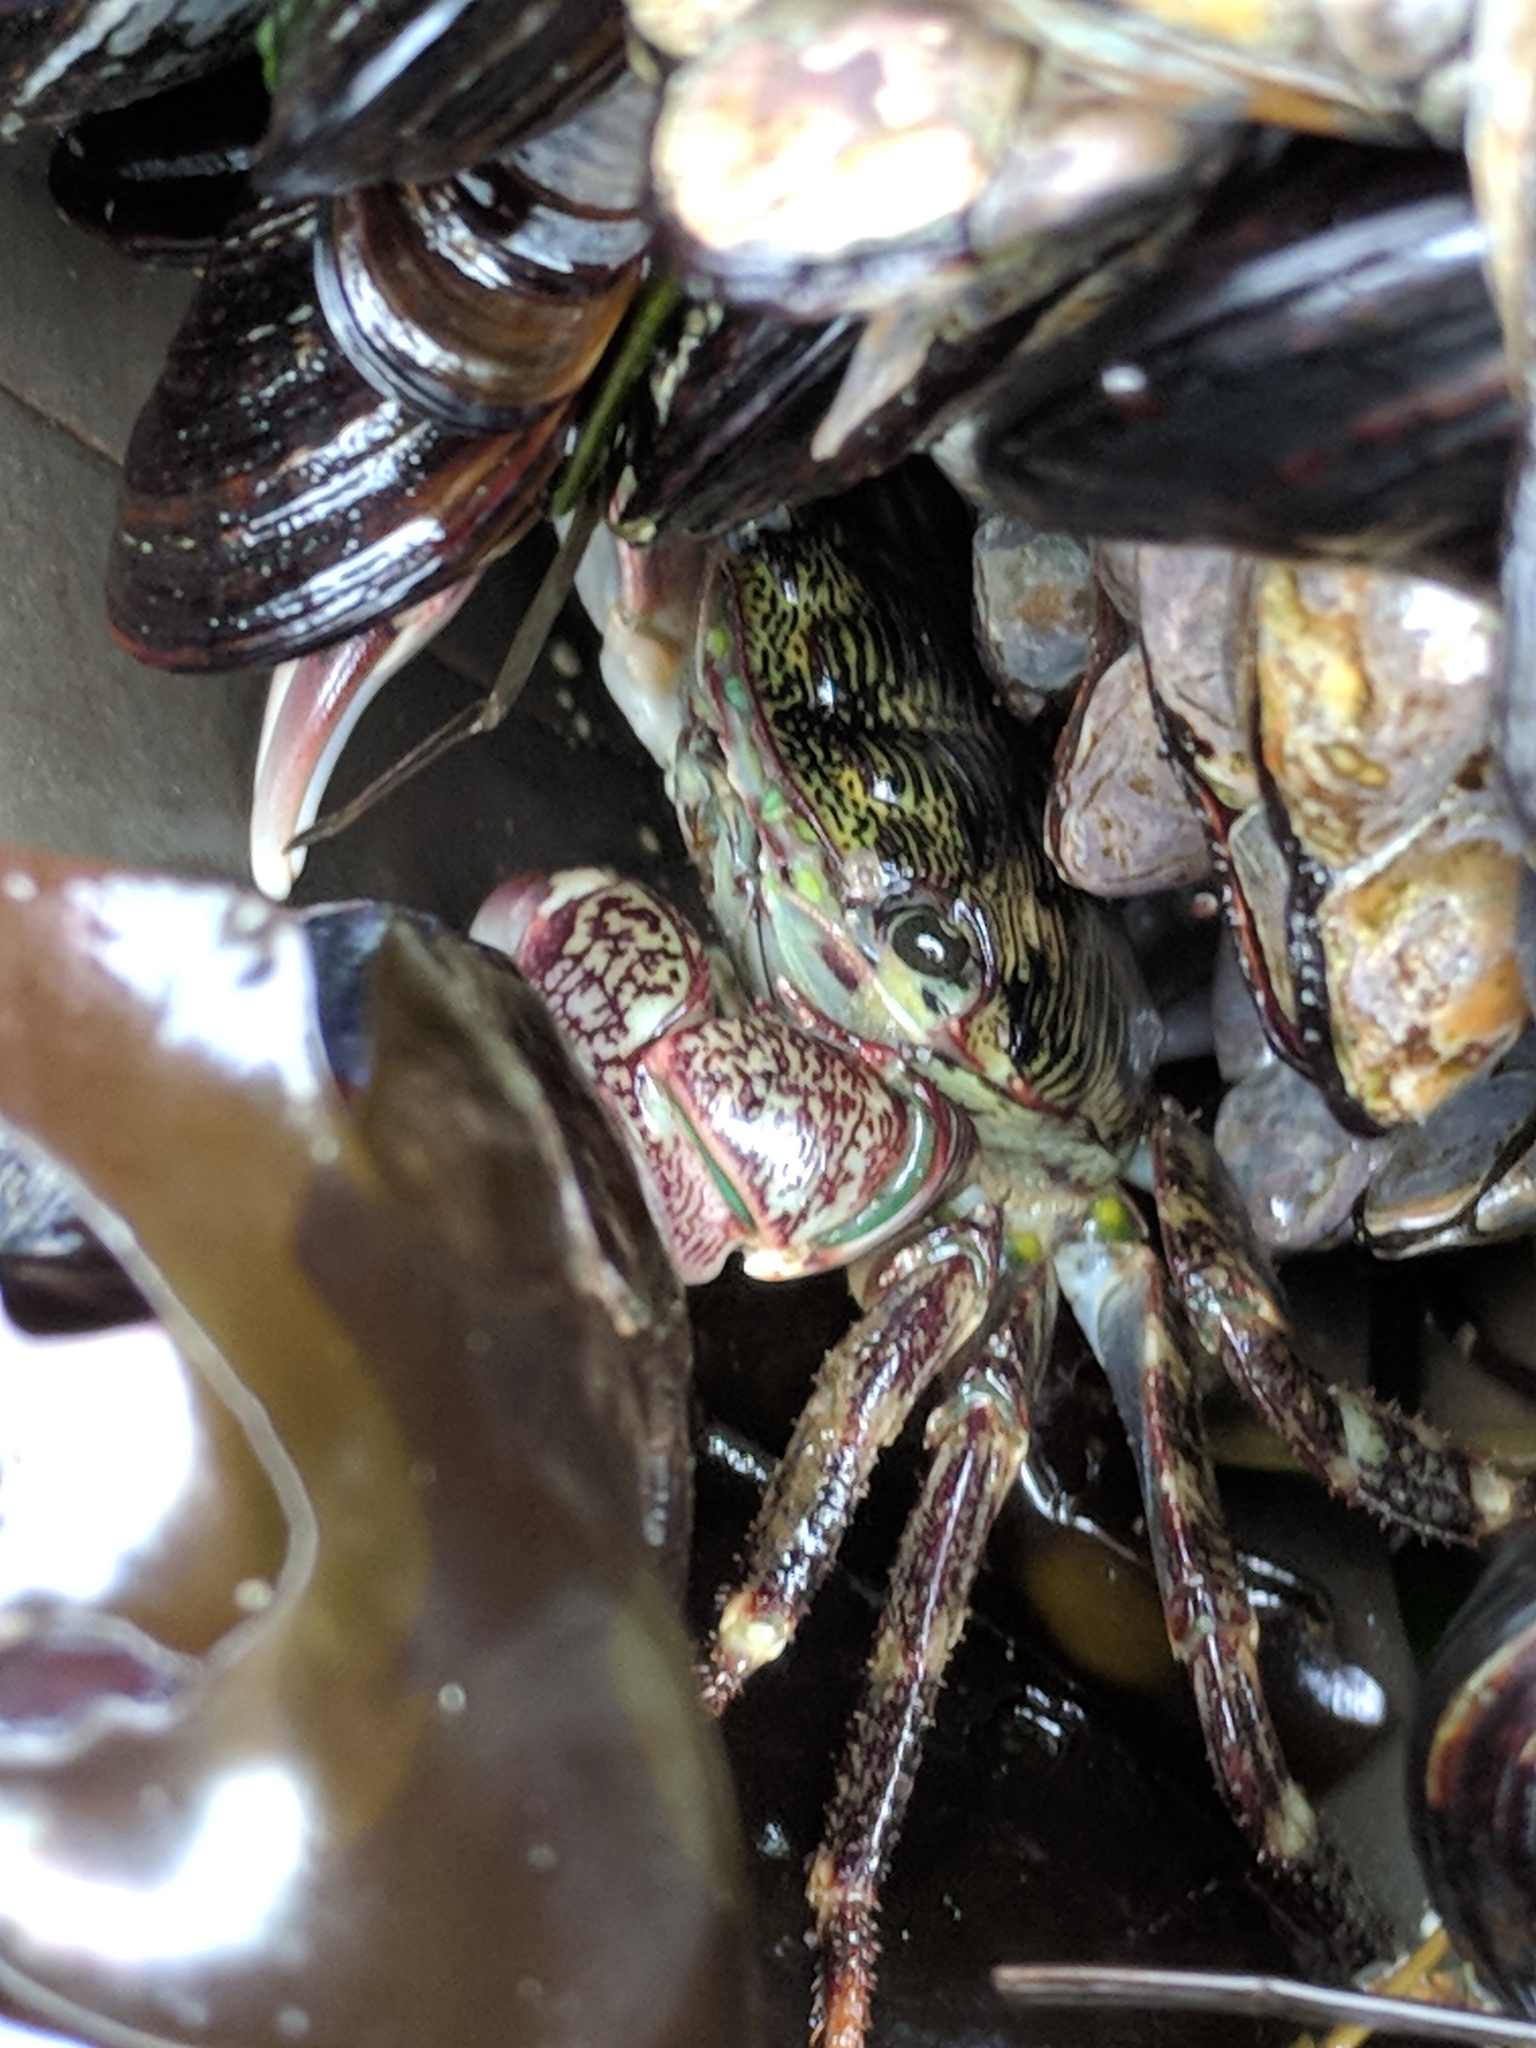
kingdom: Animalia
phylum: Arthropoda
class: Malacostraca
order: Decapoda
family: Grapsidae
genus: Pachygrapsus
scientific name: Pachygrapsus crassipes
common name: Striped shore crab
